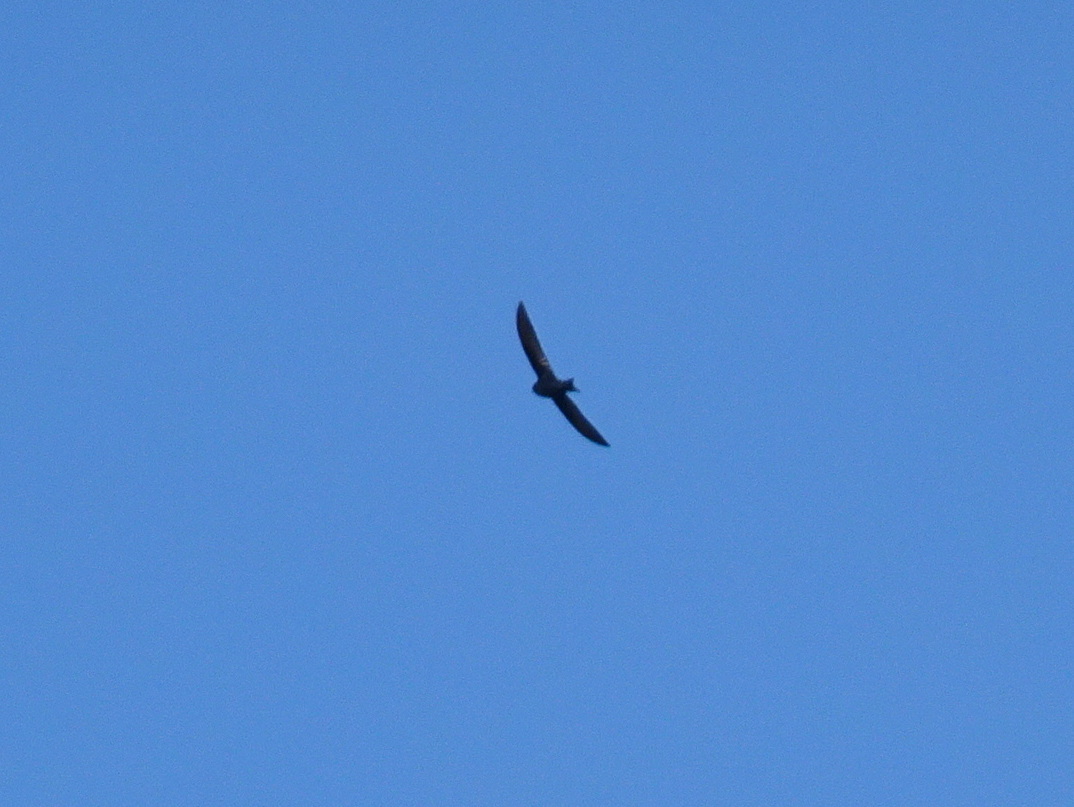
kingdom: Animalia
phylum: Chordata
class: Aves
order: Passeriformes
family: Hirundinidae
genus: Progne
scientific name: Progne subis
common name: Purple martin
